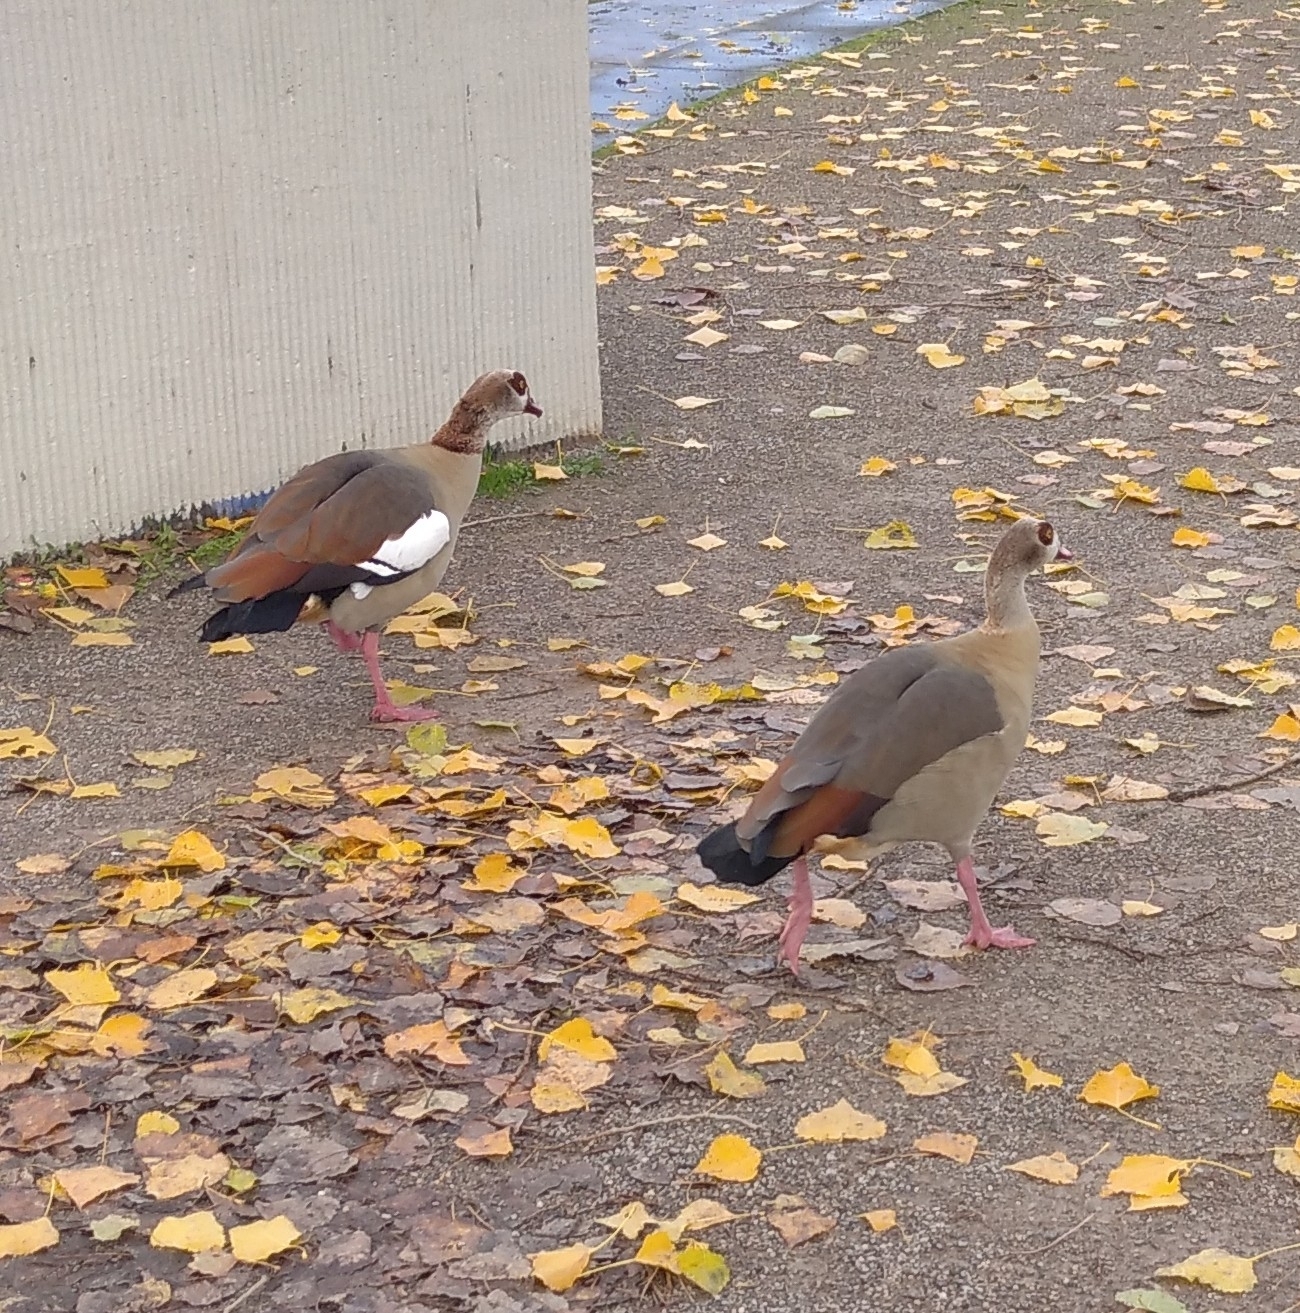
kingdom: Animalia
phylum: Chordata
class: Aves
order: Anseriformes
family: Anatidae
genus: Alopochen
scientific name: Alopochen aegyptiaca
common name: Egyptian goose
